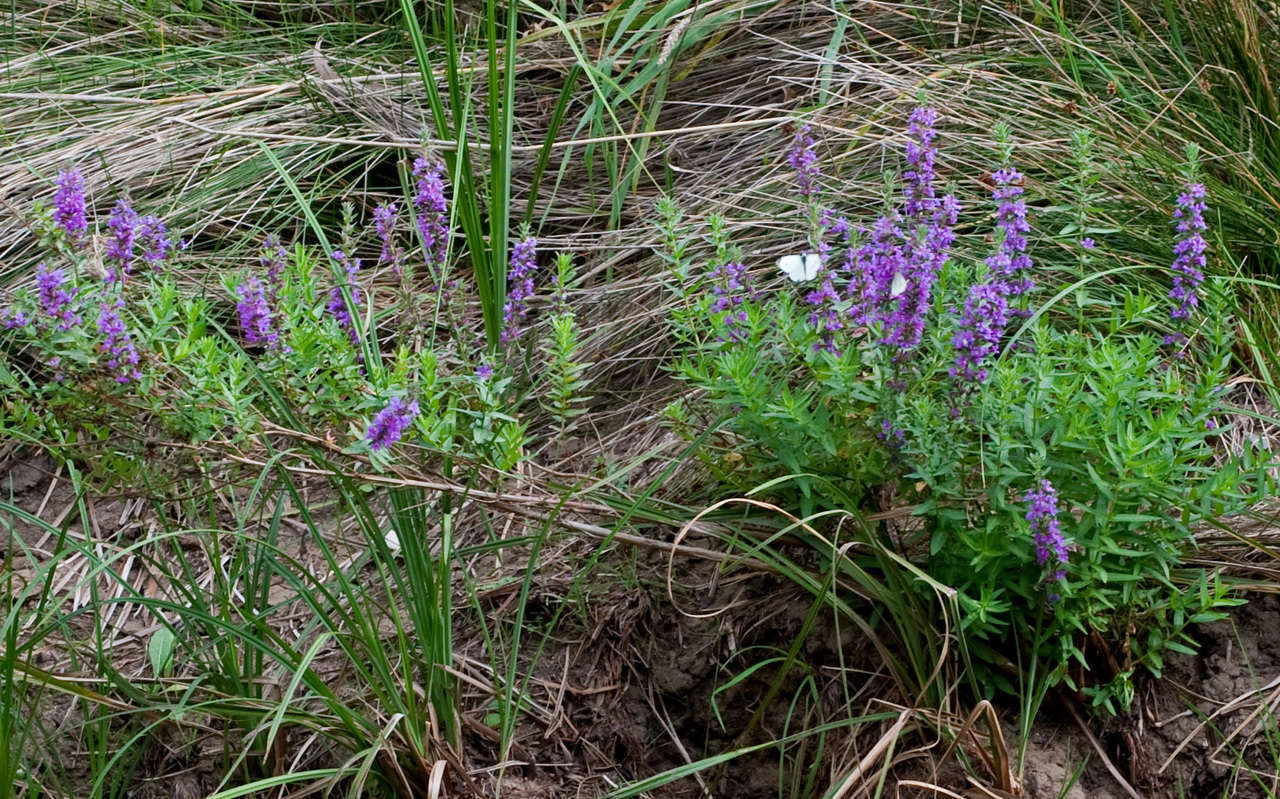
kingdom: Plantae
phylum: Tracheophyta
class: Magnoliopsida
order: Myrtales
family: Lythraceae
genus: Lythrum
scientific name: Lythrum salicaria
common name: Purple loosestrife
